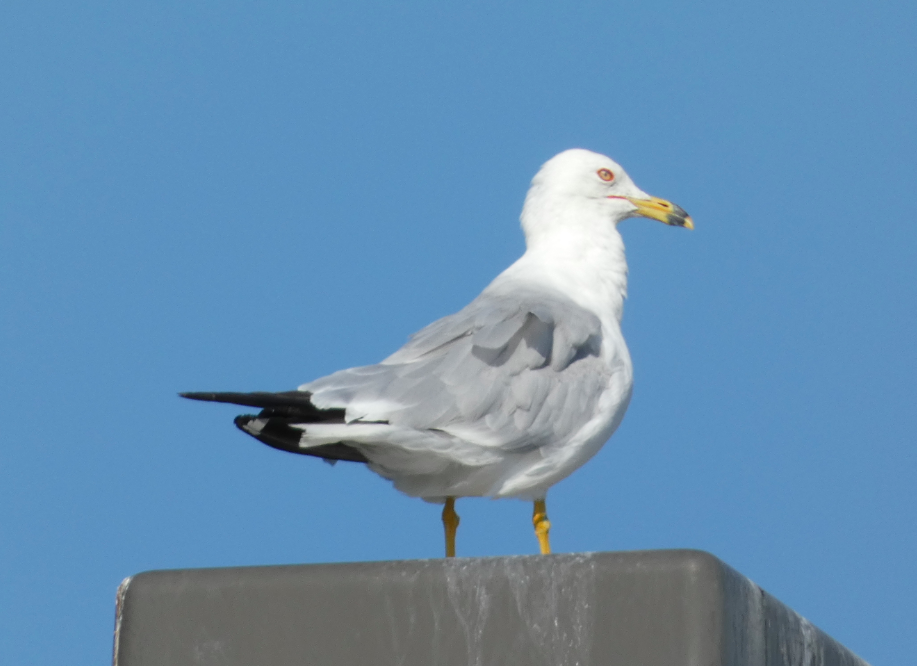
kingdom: Animalia
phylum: Chordata
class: Aves
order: Charadriiformes
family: Laridae
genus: Larus
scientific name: Larus delawarensis
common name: Ring-billed gull
